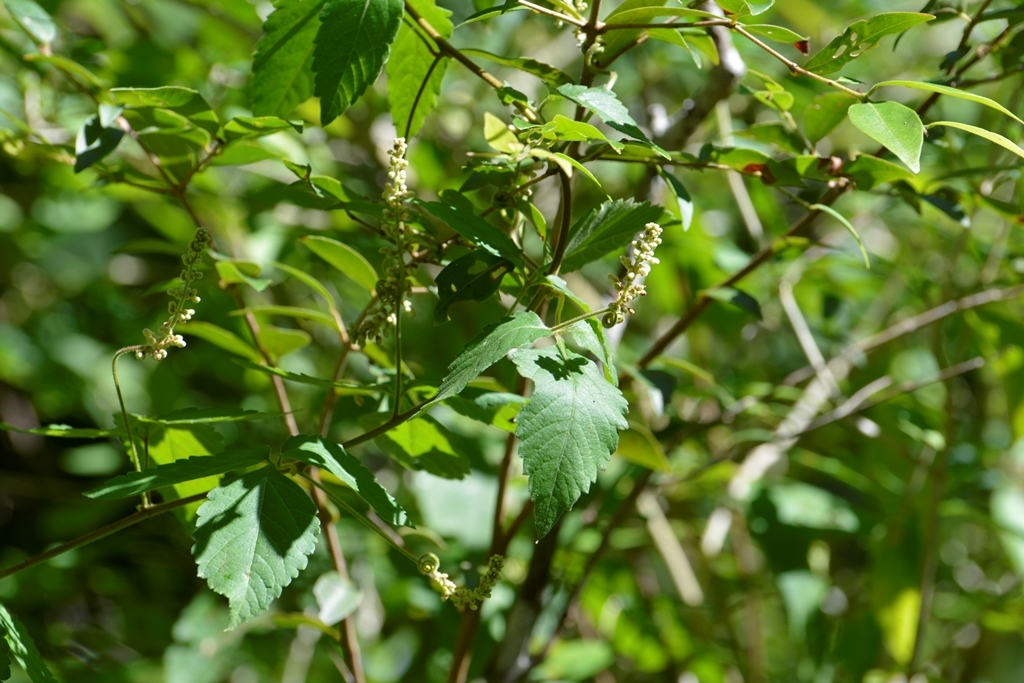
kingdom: Plantae
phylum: Tracheophyta
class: Magnoliopsida
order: Sapindales
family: Sapindaceae
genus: Serjania
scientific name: Serjania racemosa
